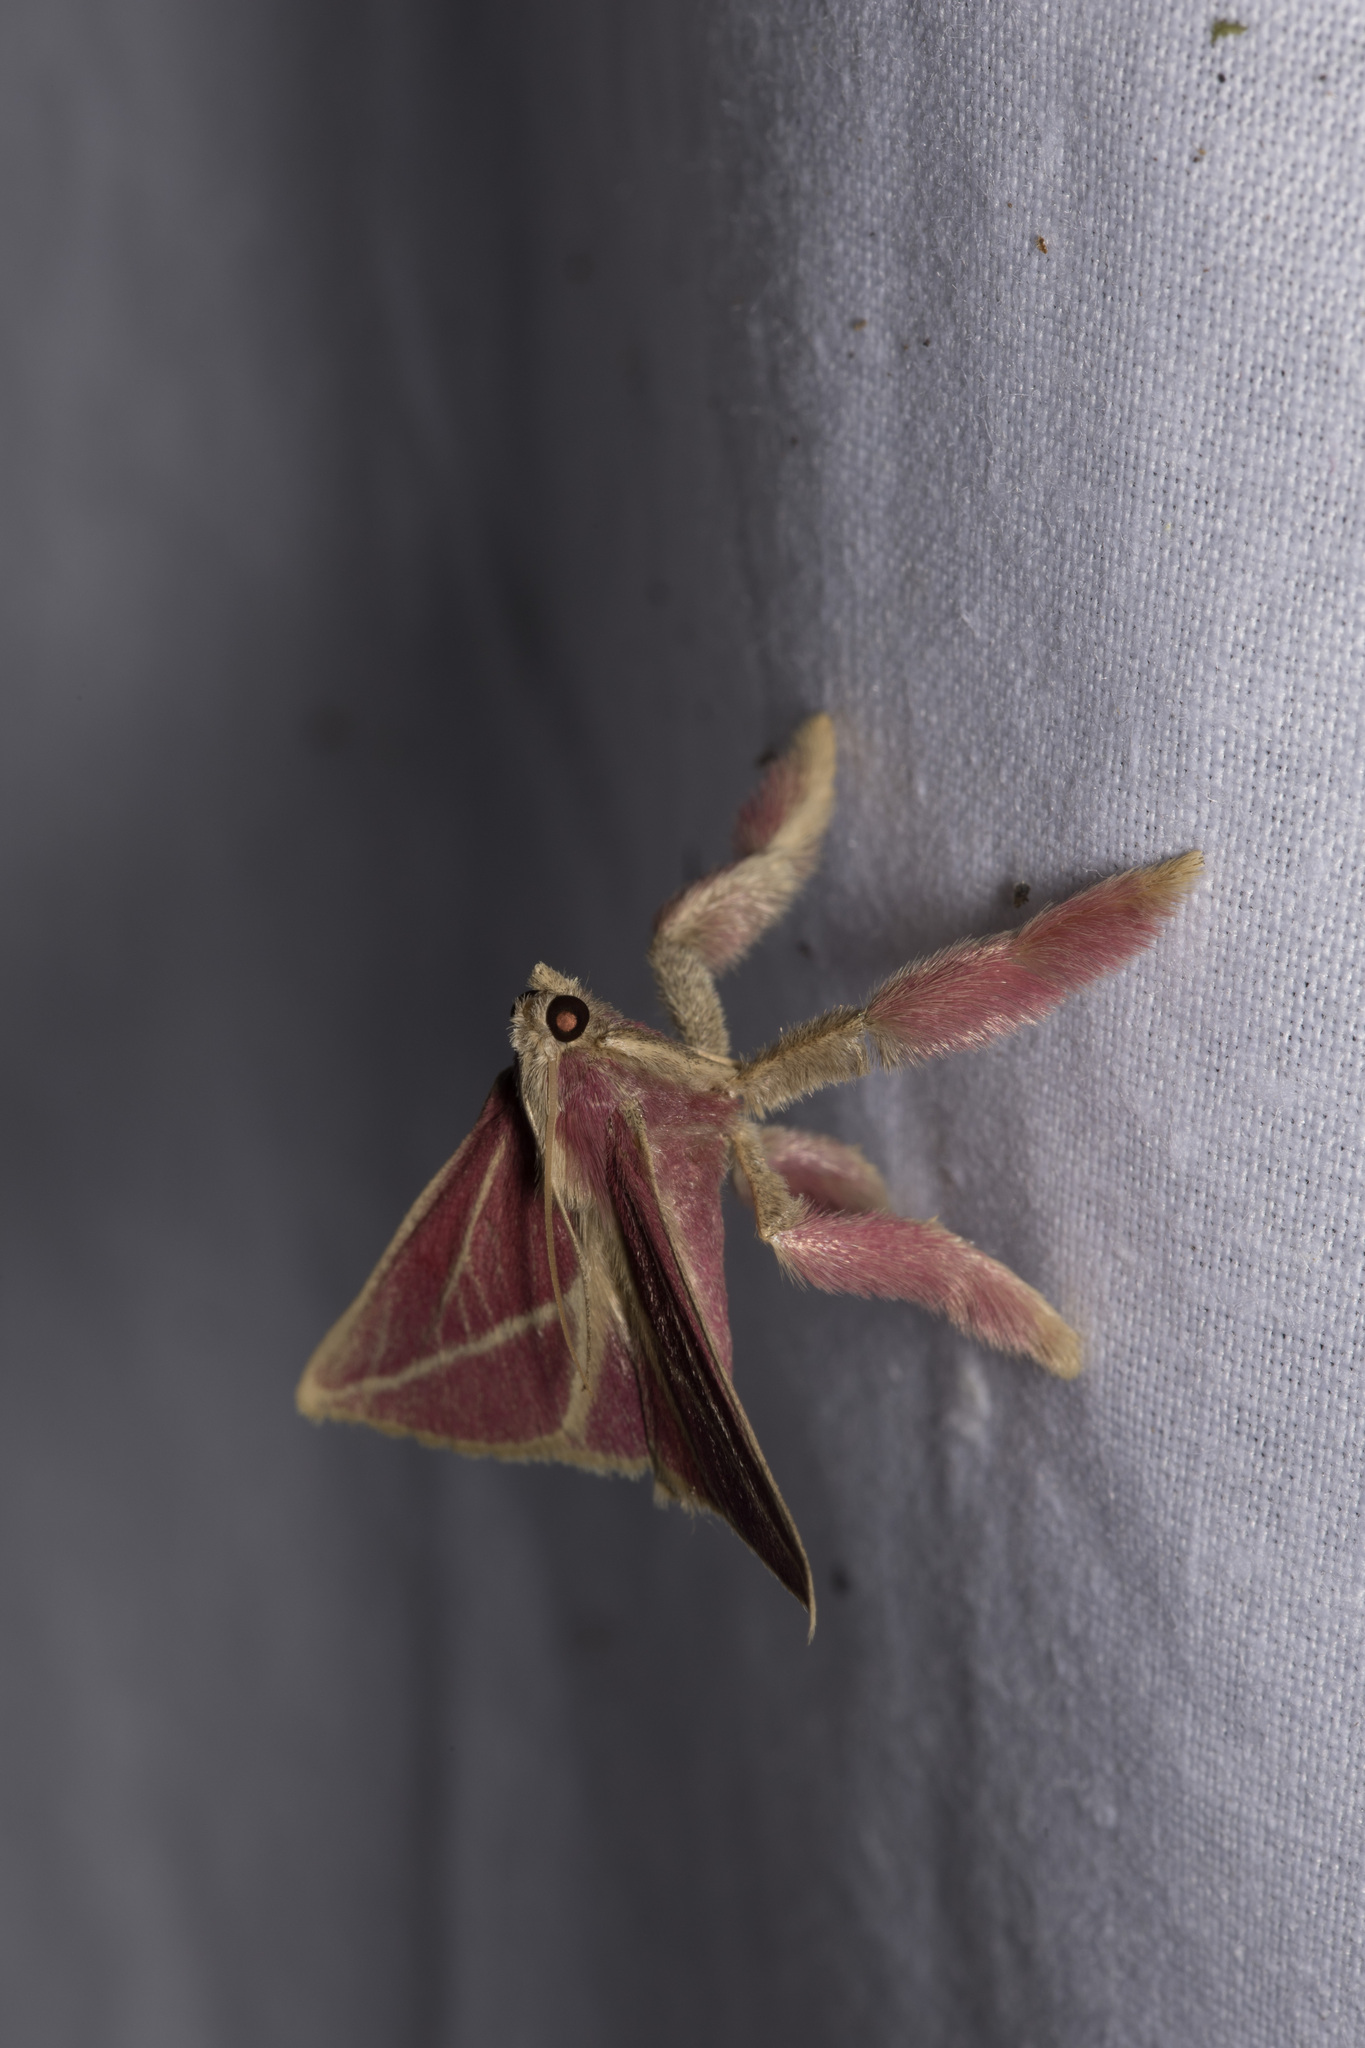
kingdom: Animalia
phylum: Arthropoda
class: Insecta
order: Lepidoptera
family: Pyralidae
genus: Pachypodistes
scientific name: Pachypodistes
